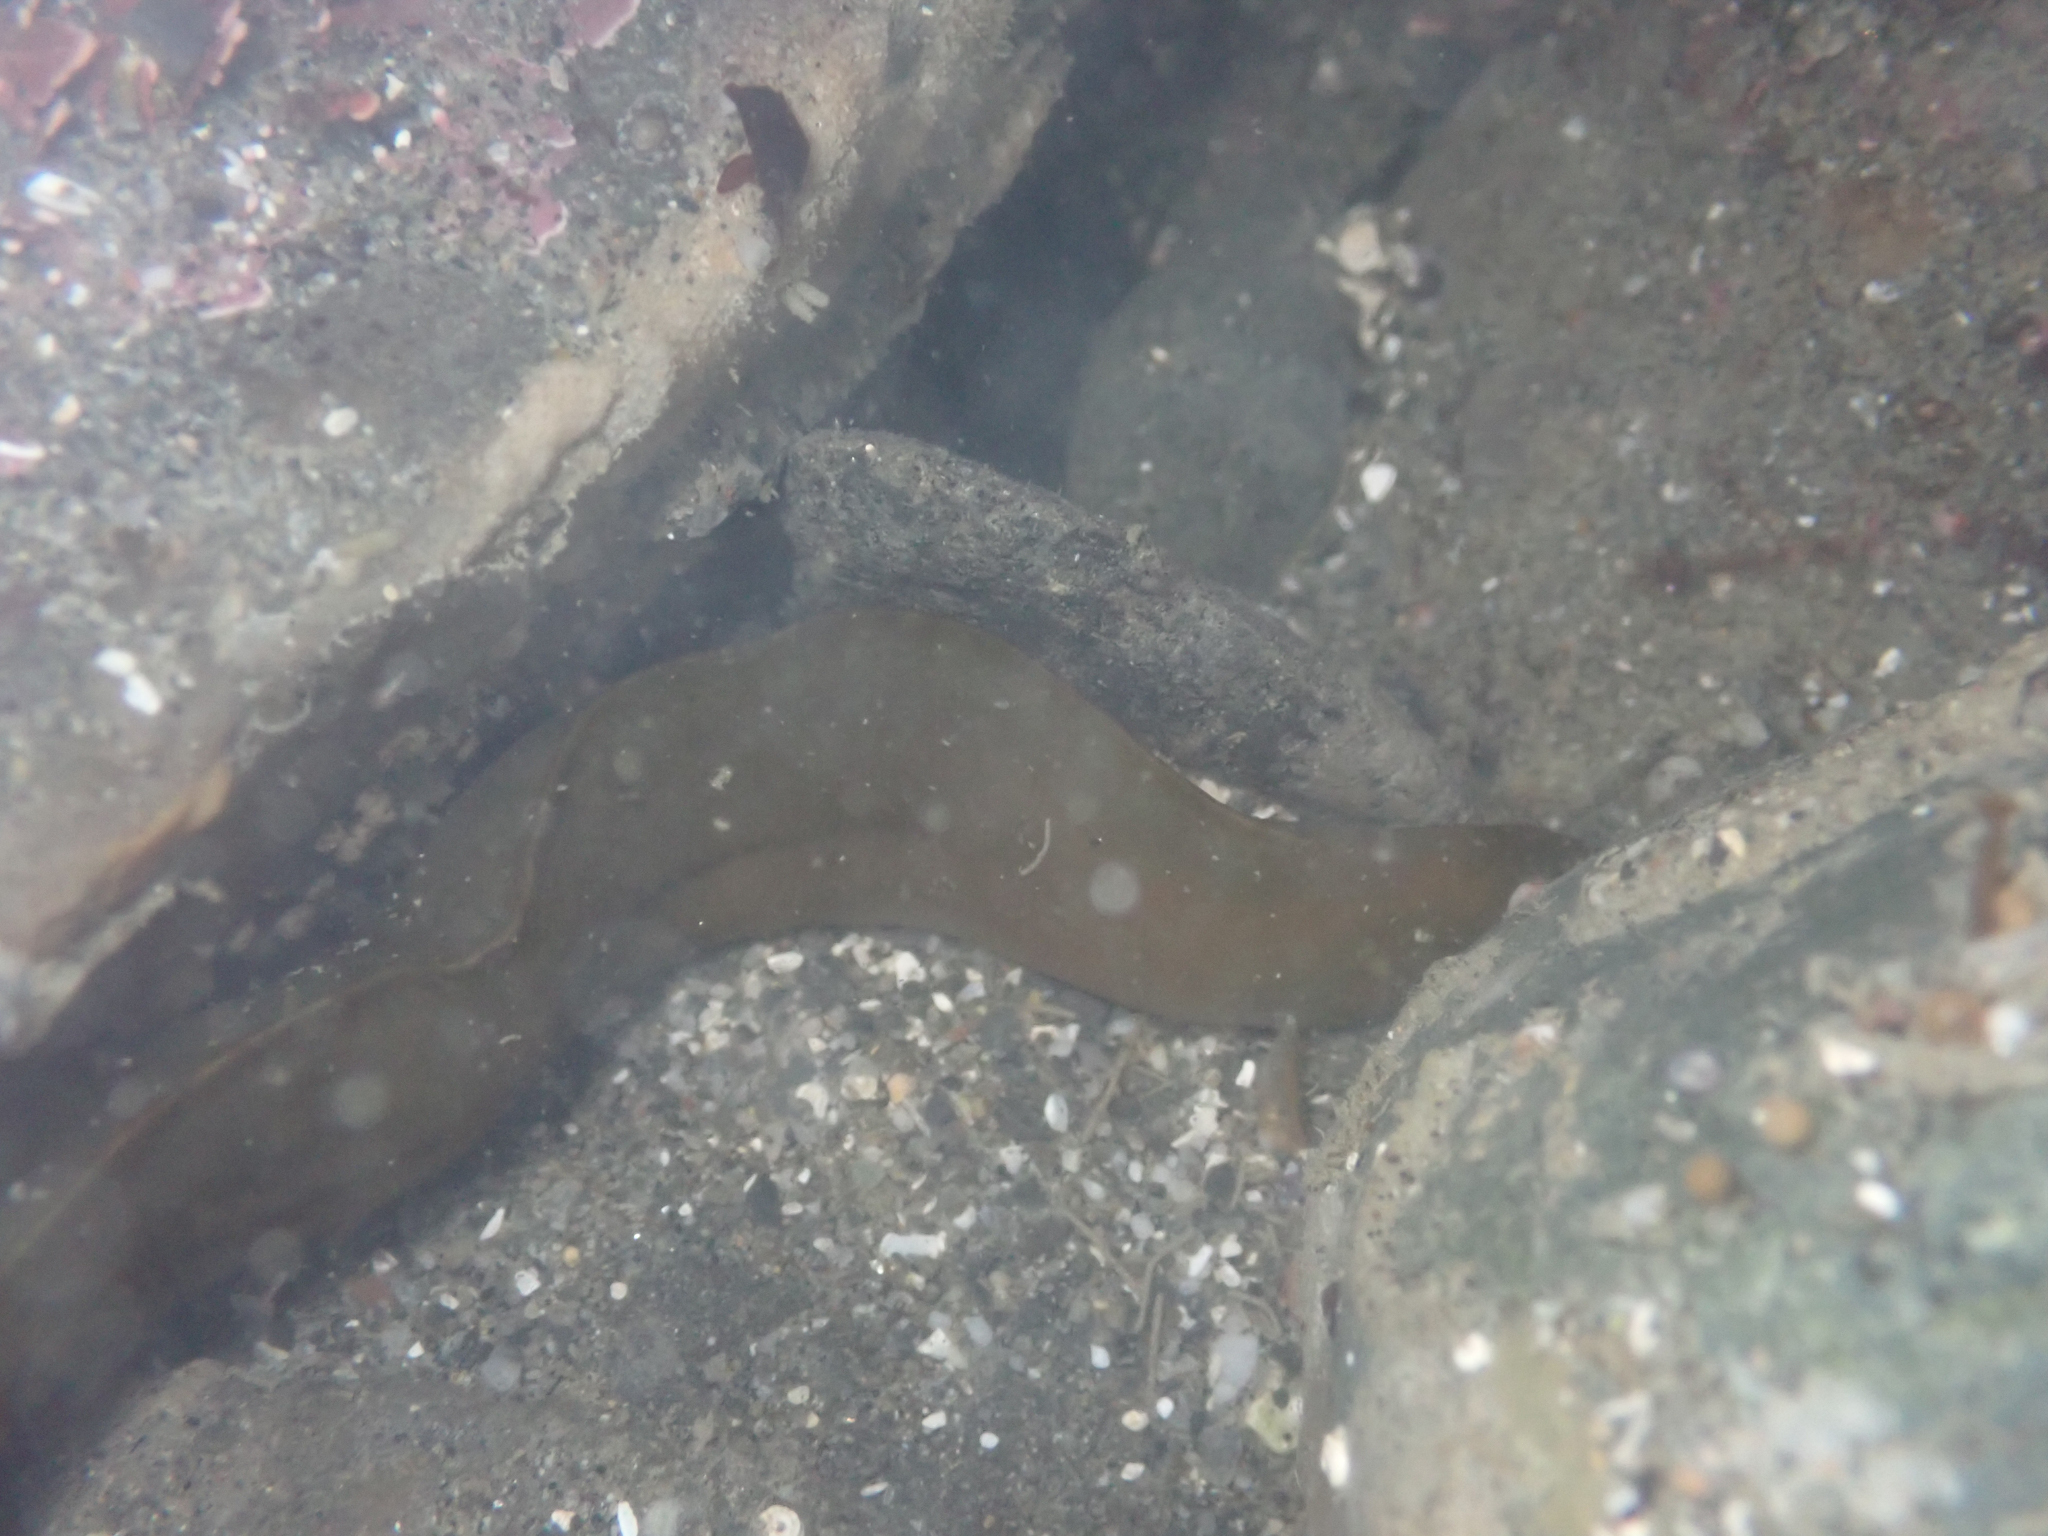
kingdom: Animalia
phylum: Chordata
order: Perciformes
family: Pholidae
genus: Apodichthys
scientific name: Apodichthys flavidus
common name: Penpoint gunnel
